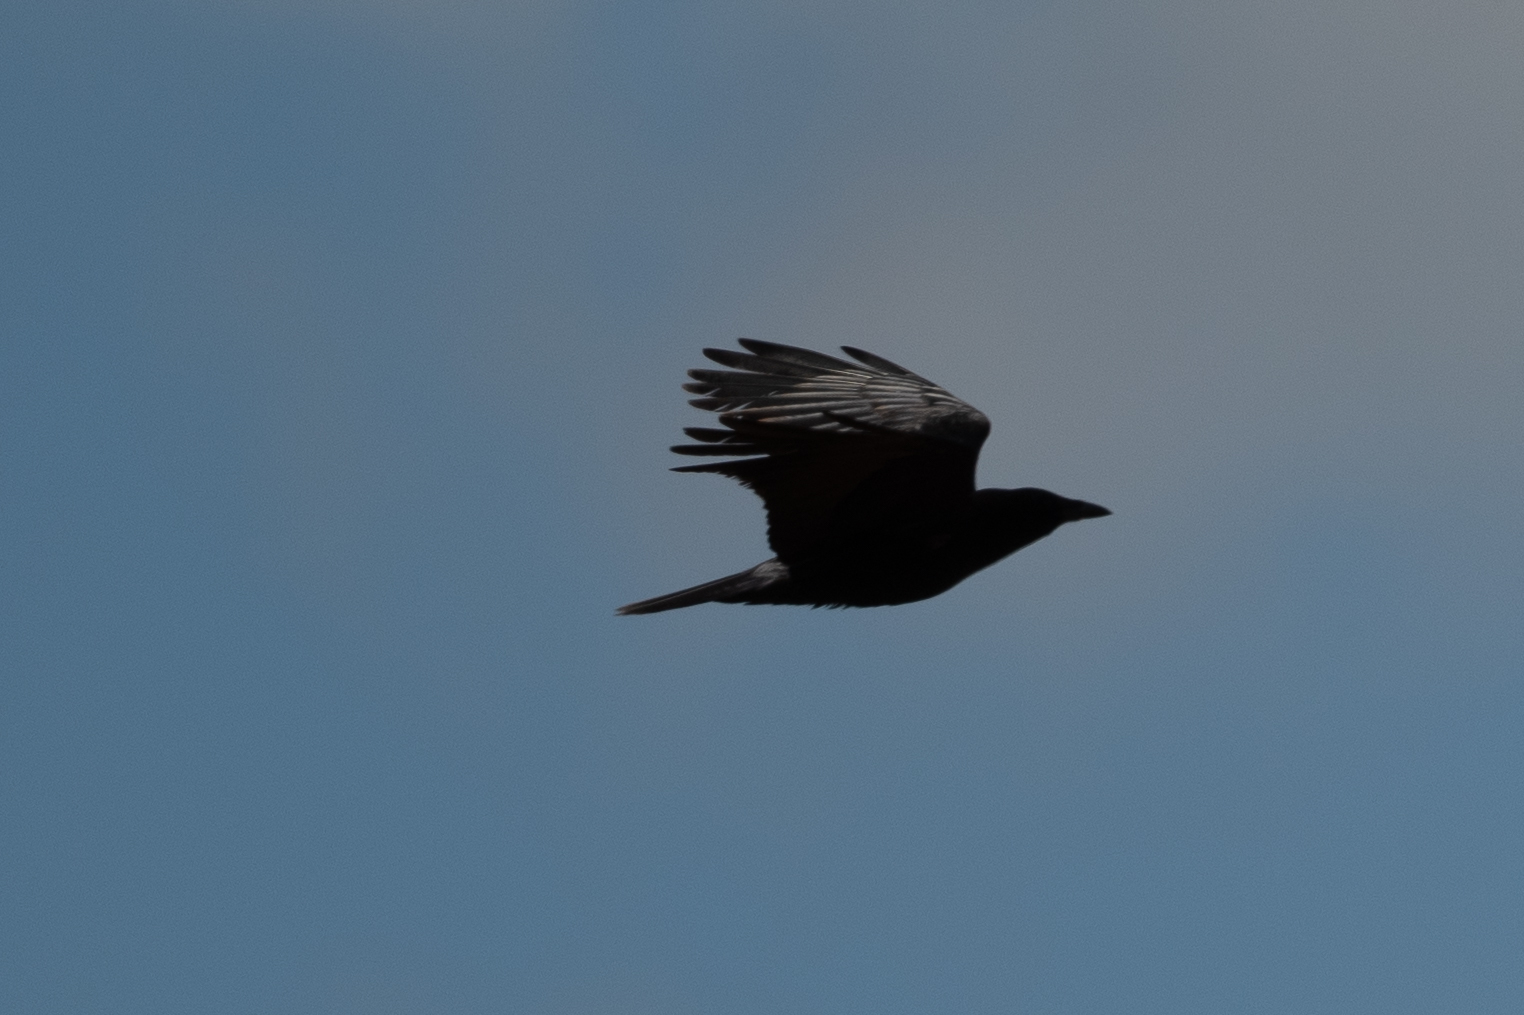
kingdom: Animalia
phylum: Chordata
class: Aves
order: Passeriformes
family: Corvidae
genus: Corvus
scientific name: Corvus brachyrhynchos
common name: American crow
